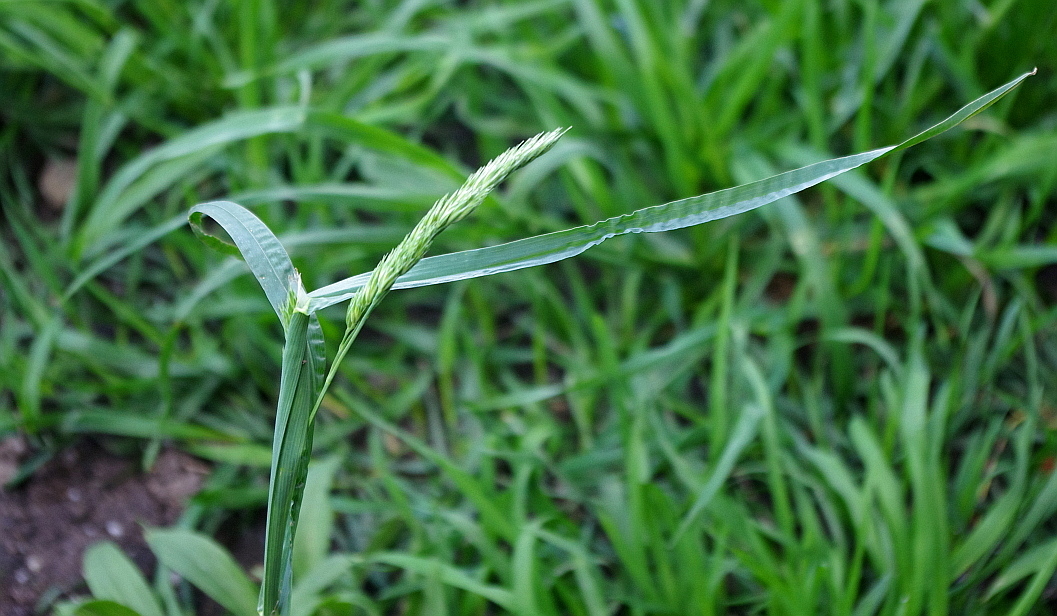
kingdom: Plantae
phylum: Tracheophyta
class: Liliopsida
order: Poales
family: Poaceae
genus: Dactylis
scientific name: Dactylis glomerata
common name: Orchardgrass
